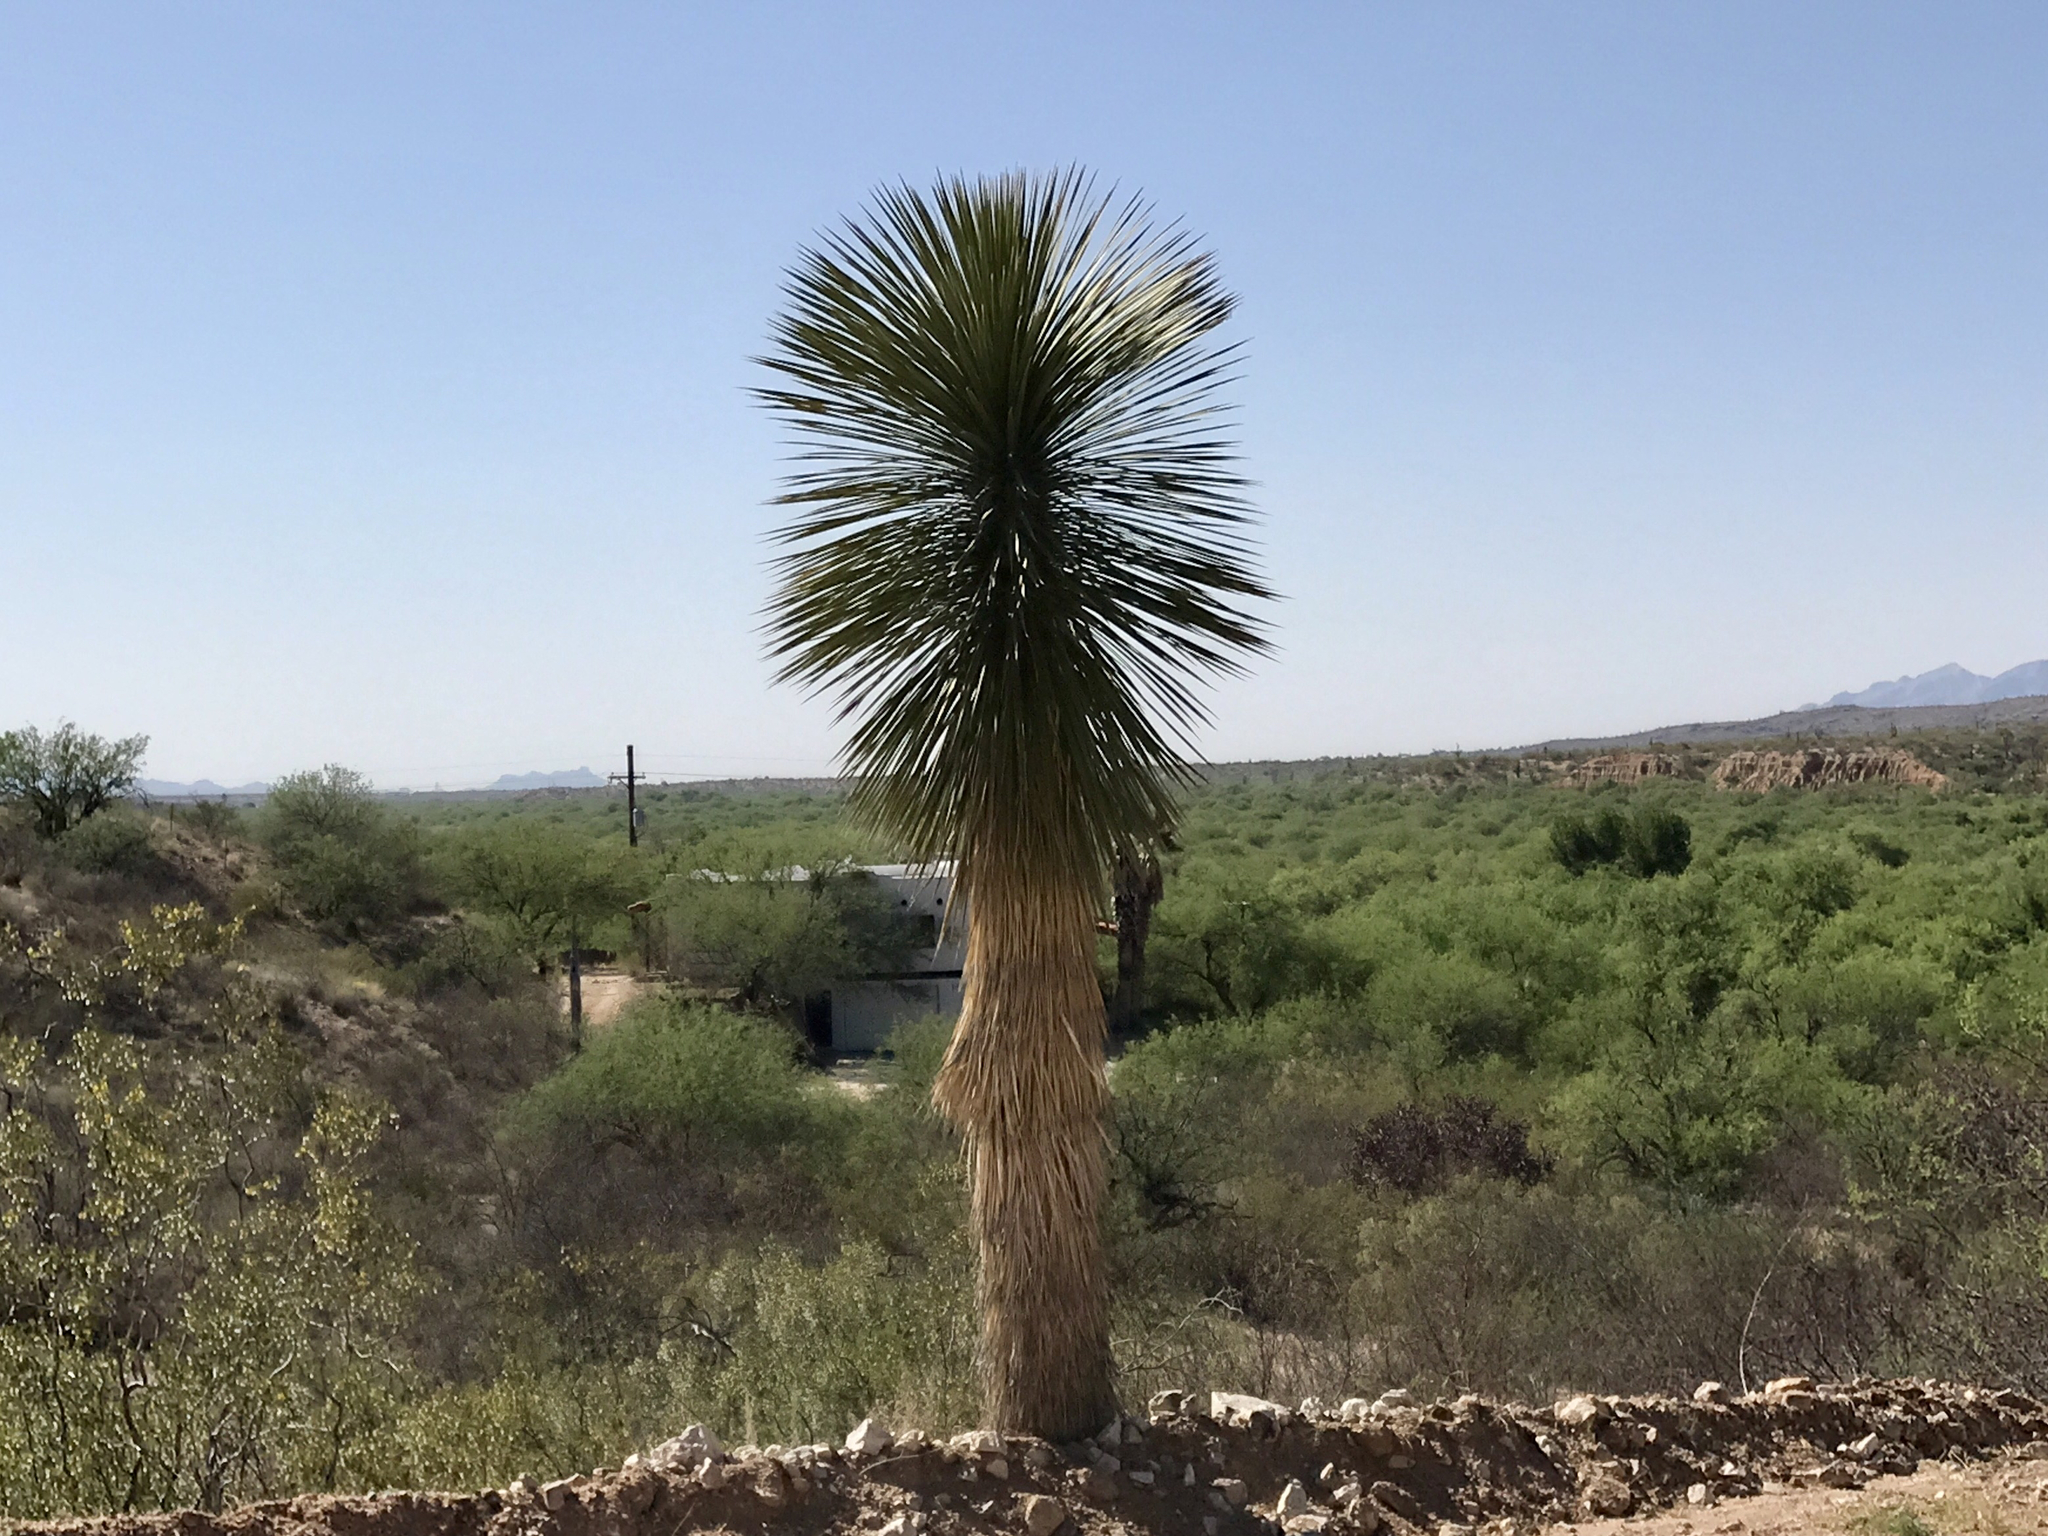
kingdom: Plantae
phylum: Tracheophyta
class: Liliopsida
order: Asparagales
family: Asparagaceae
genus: Yucca
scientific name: Yucca elata
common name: Palmella
